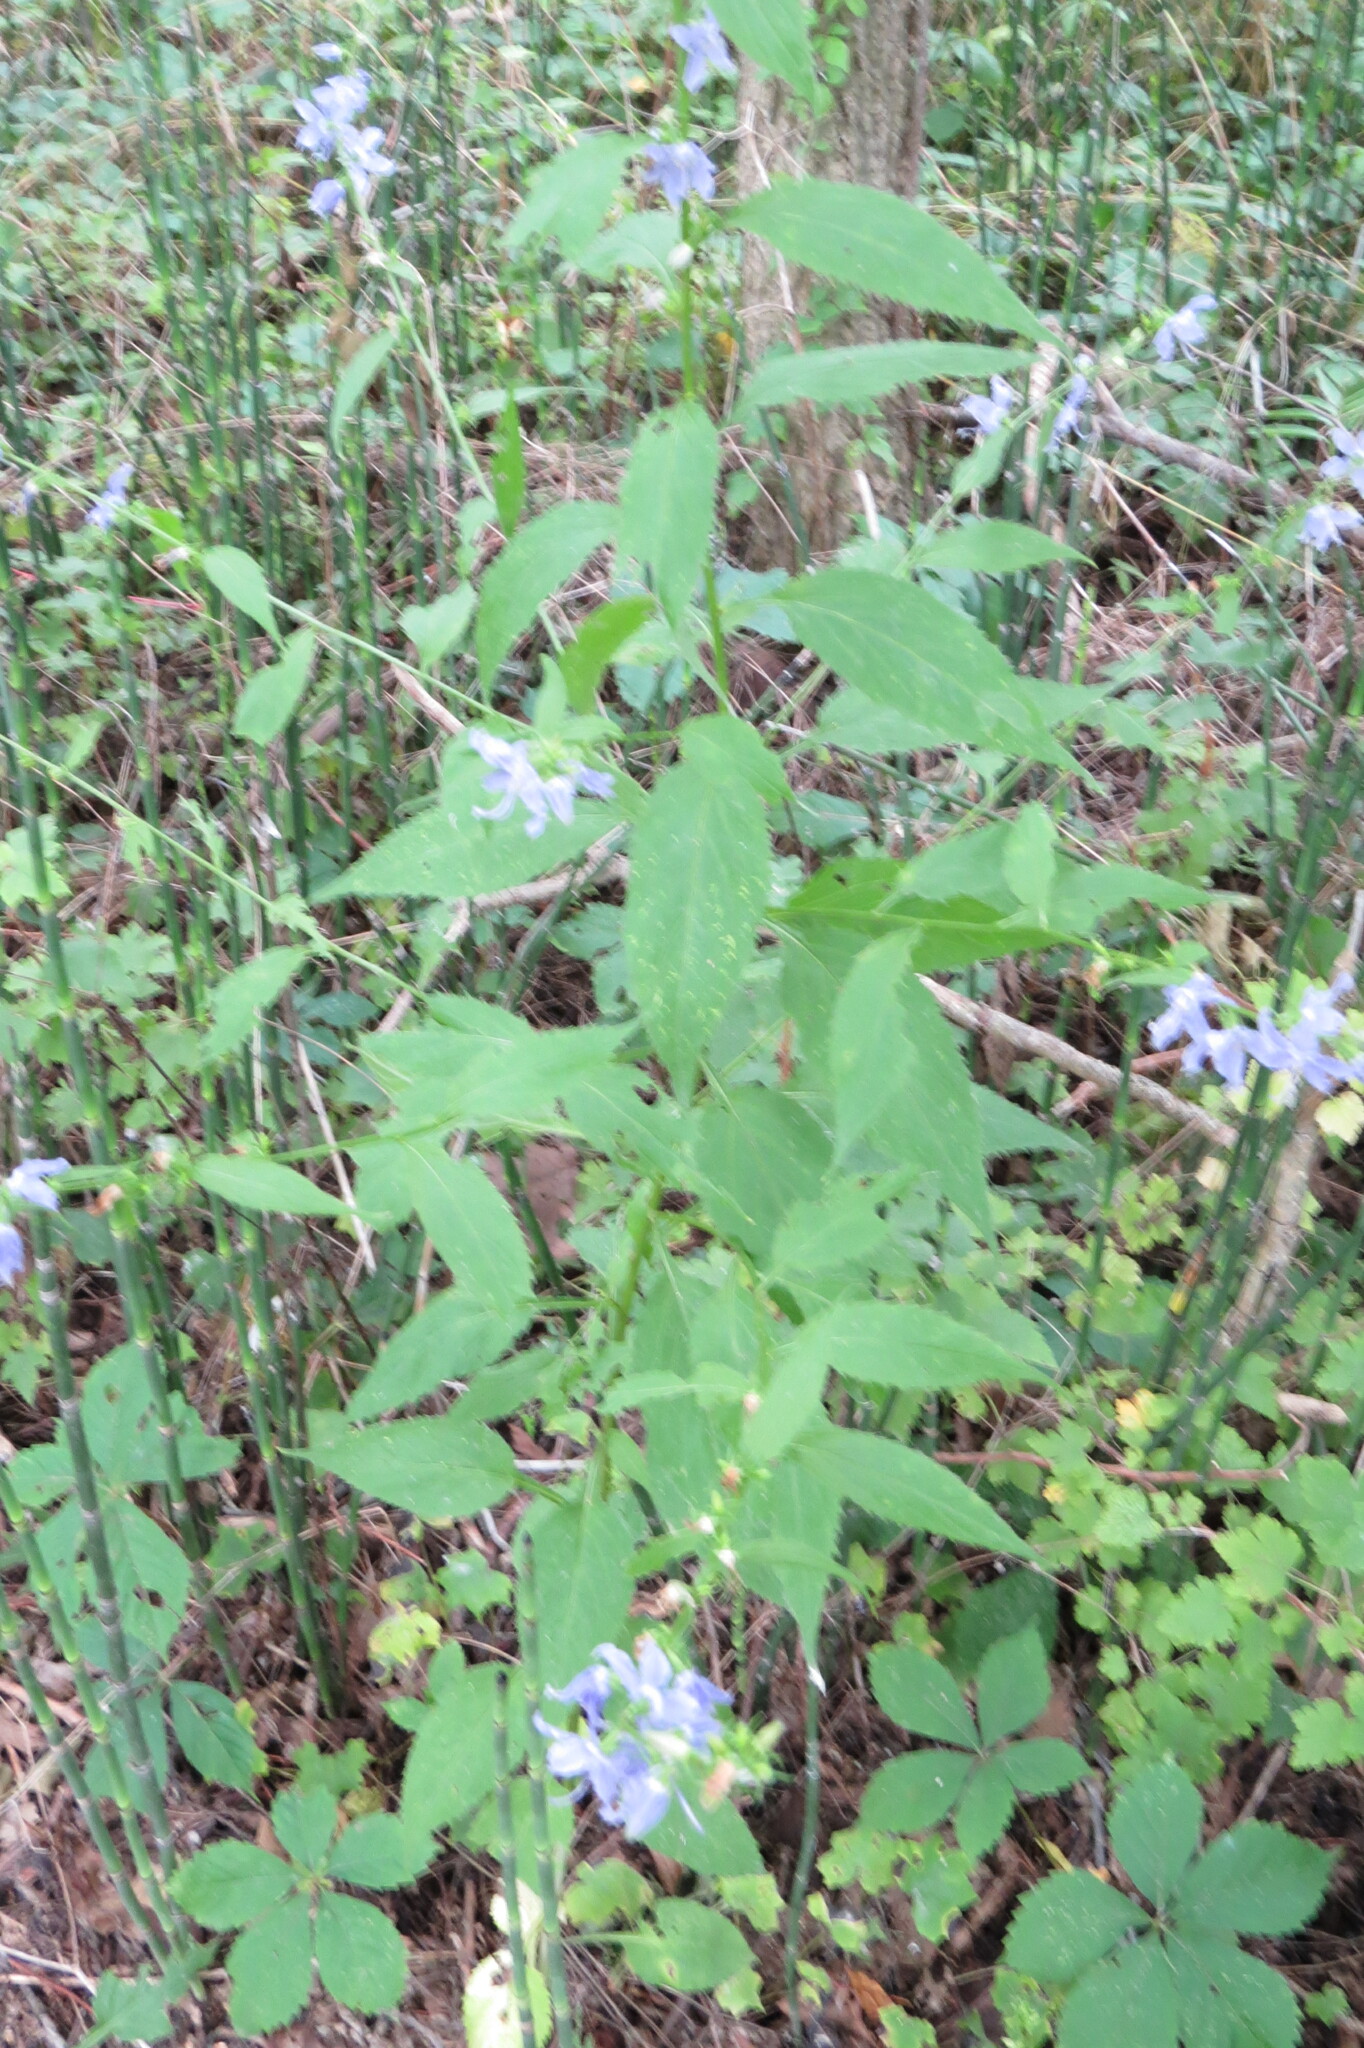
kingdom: Plantae
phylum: Tracheophyta
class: Magnoliopsida
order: Asterales
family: Campanulaceae
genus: Campanulastrum
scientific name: Campanulastrum americanum
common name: American bellflower
